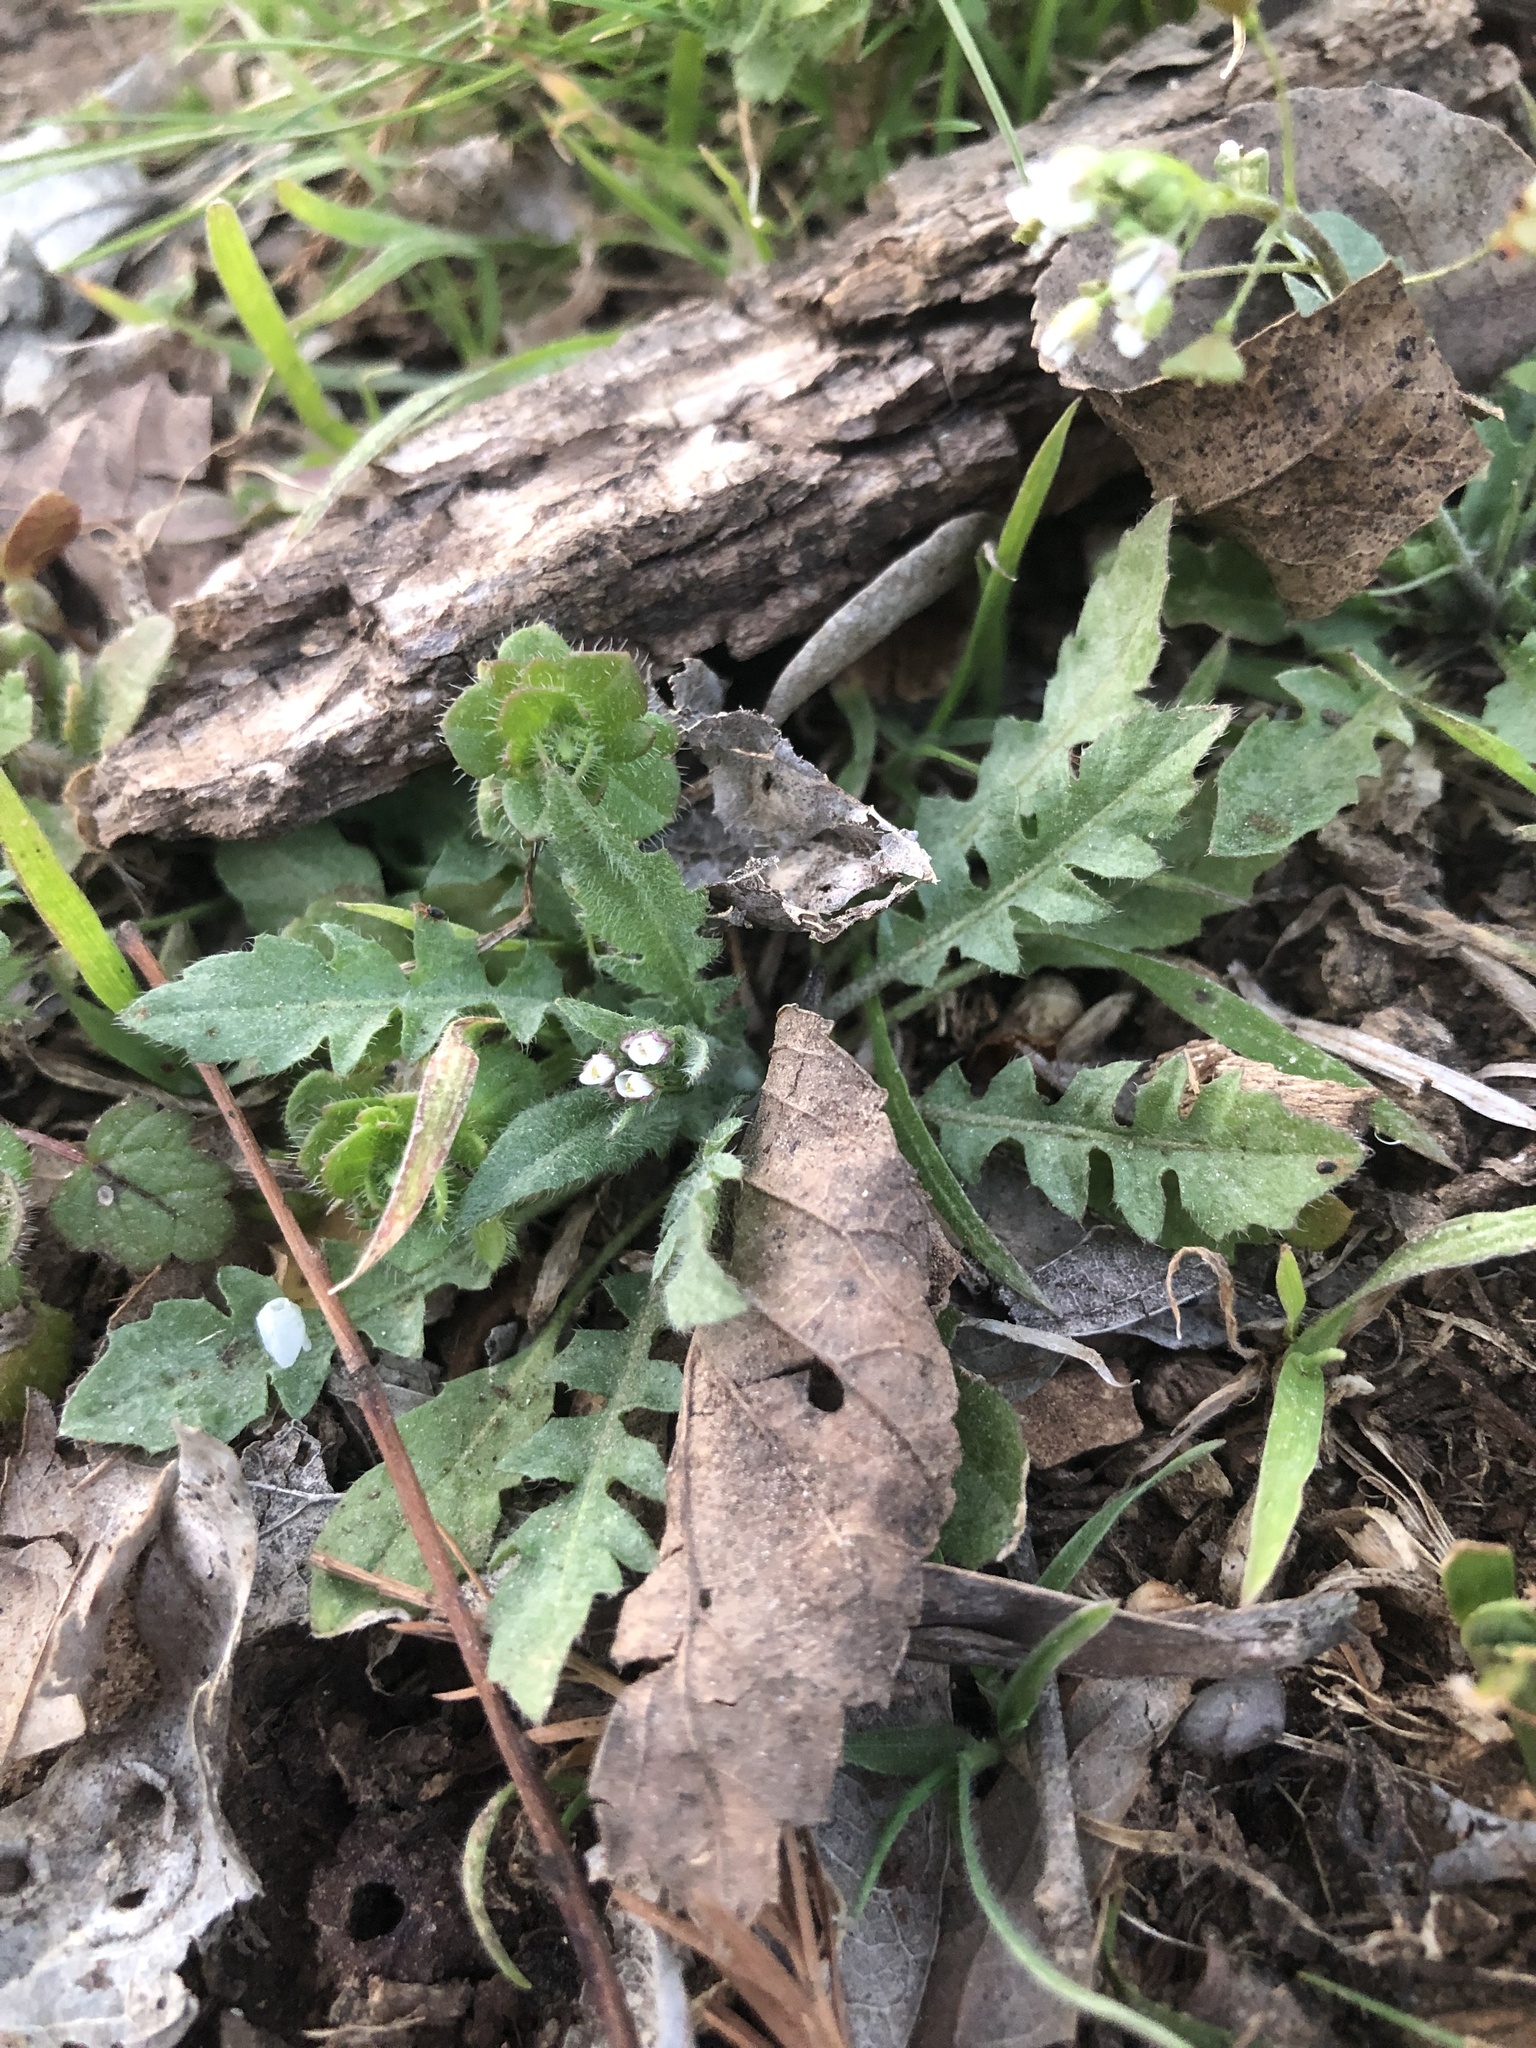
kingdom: Plantae
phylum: Tracheophyta
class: Magnoliopsida
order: Brassicales
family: Brassicaceae
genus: Capsella
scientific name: Capsella bursa-pastoris
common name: Shepherd's purse
